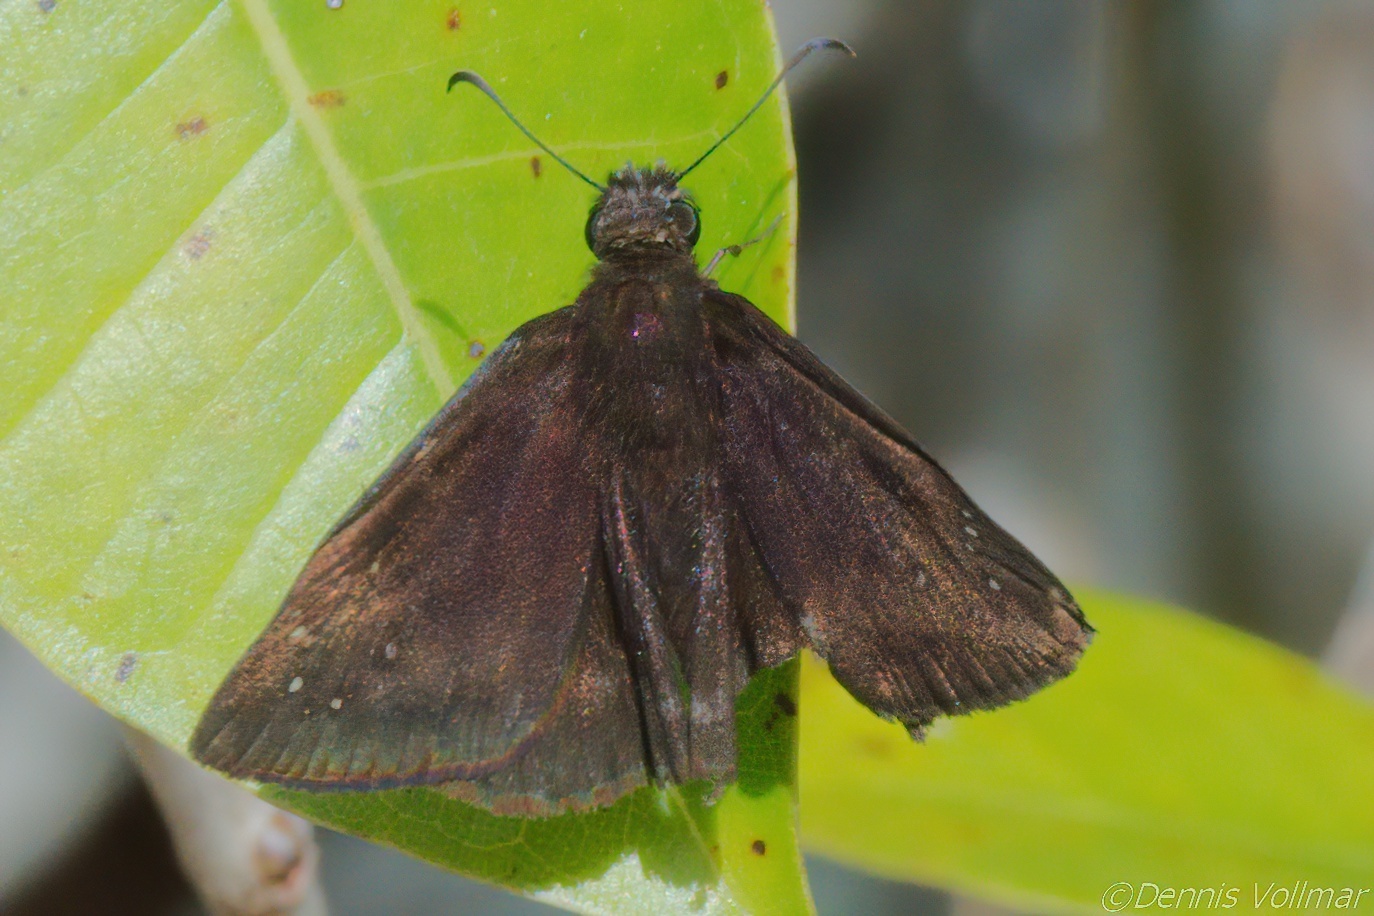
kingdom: Animalia
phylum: Arthropoda
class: Insecta
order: Lepidoptera
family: Hesperiidae
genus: Ephyriades
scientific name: Ephyriades brunnea
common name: Florida duskywing
